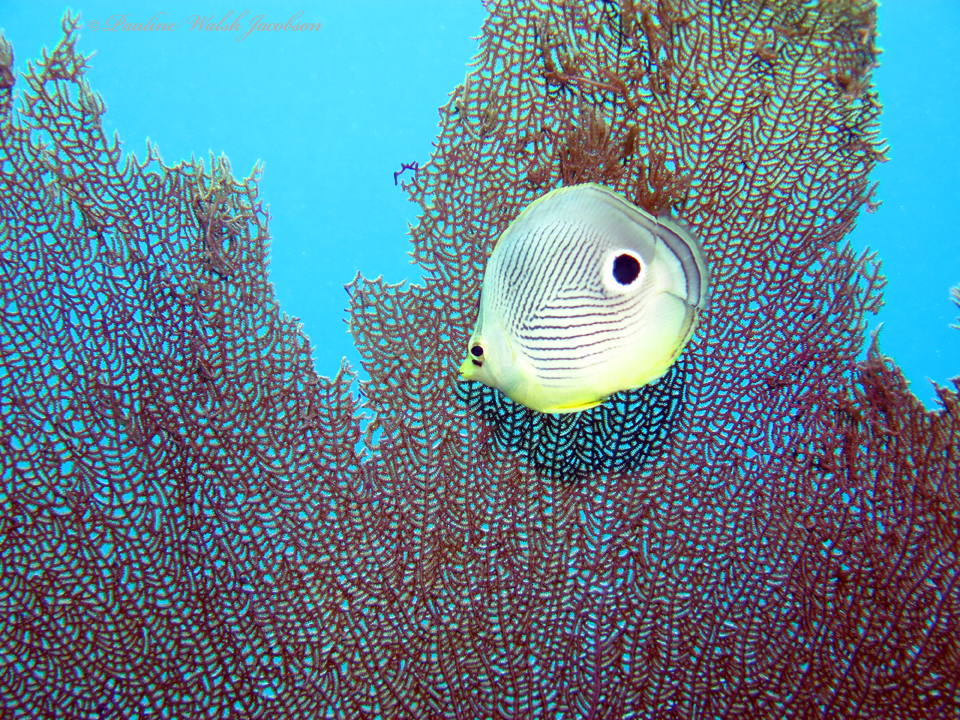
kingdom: Animalia
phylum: Chordata
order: Perciformes
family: Chaetodontidae
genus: Chaetodon
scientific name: Chaetodon capistratus
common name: Kete
